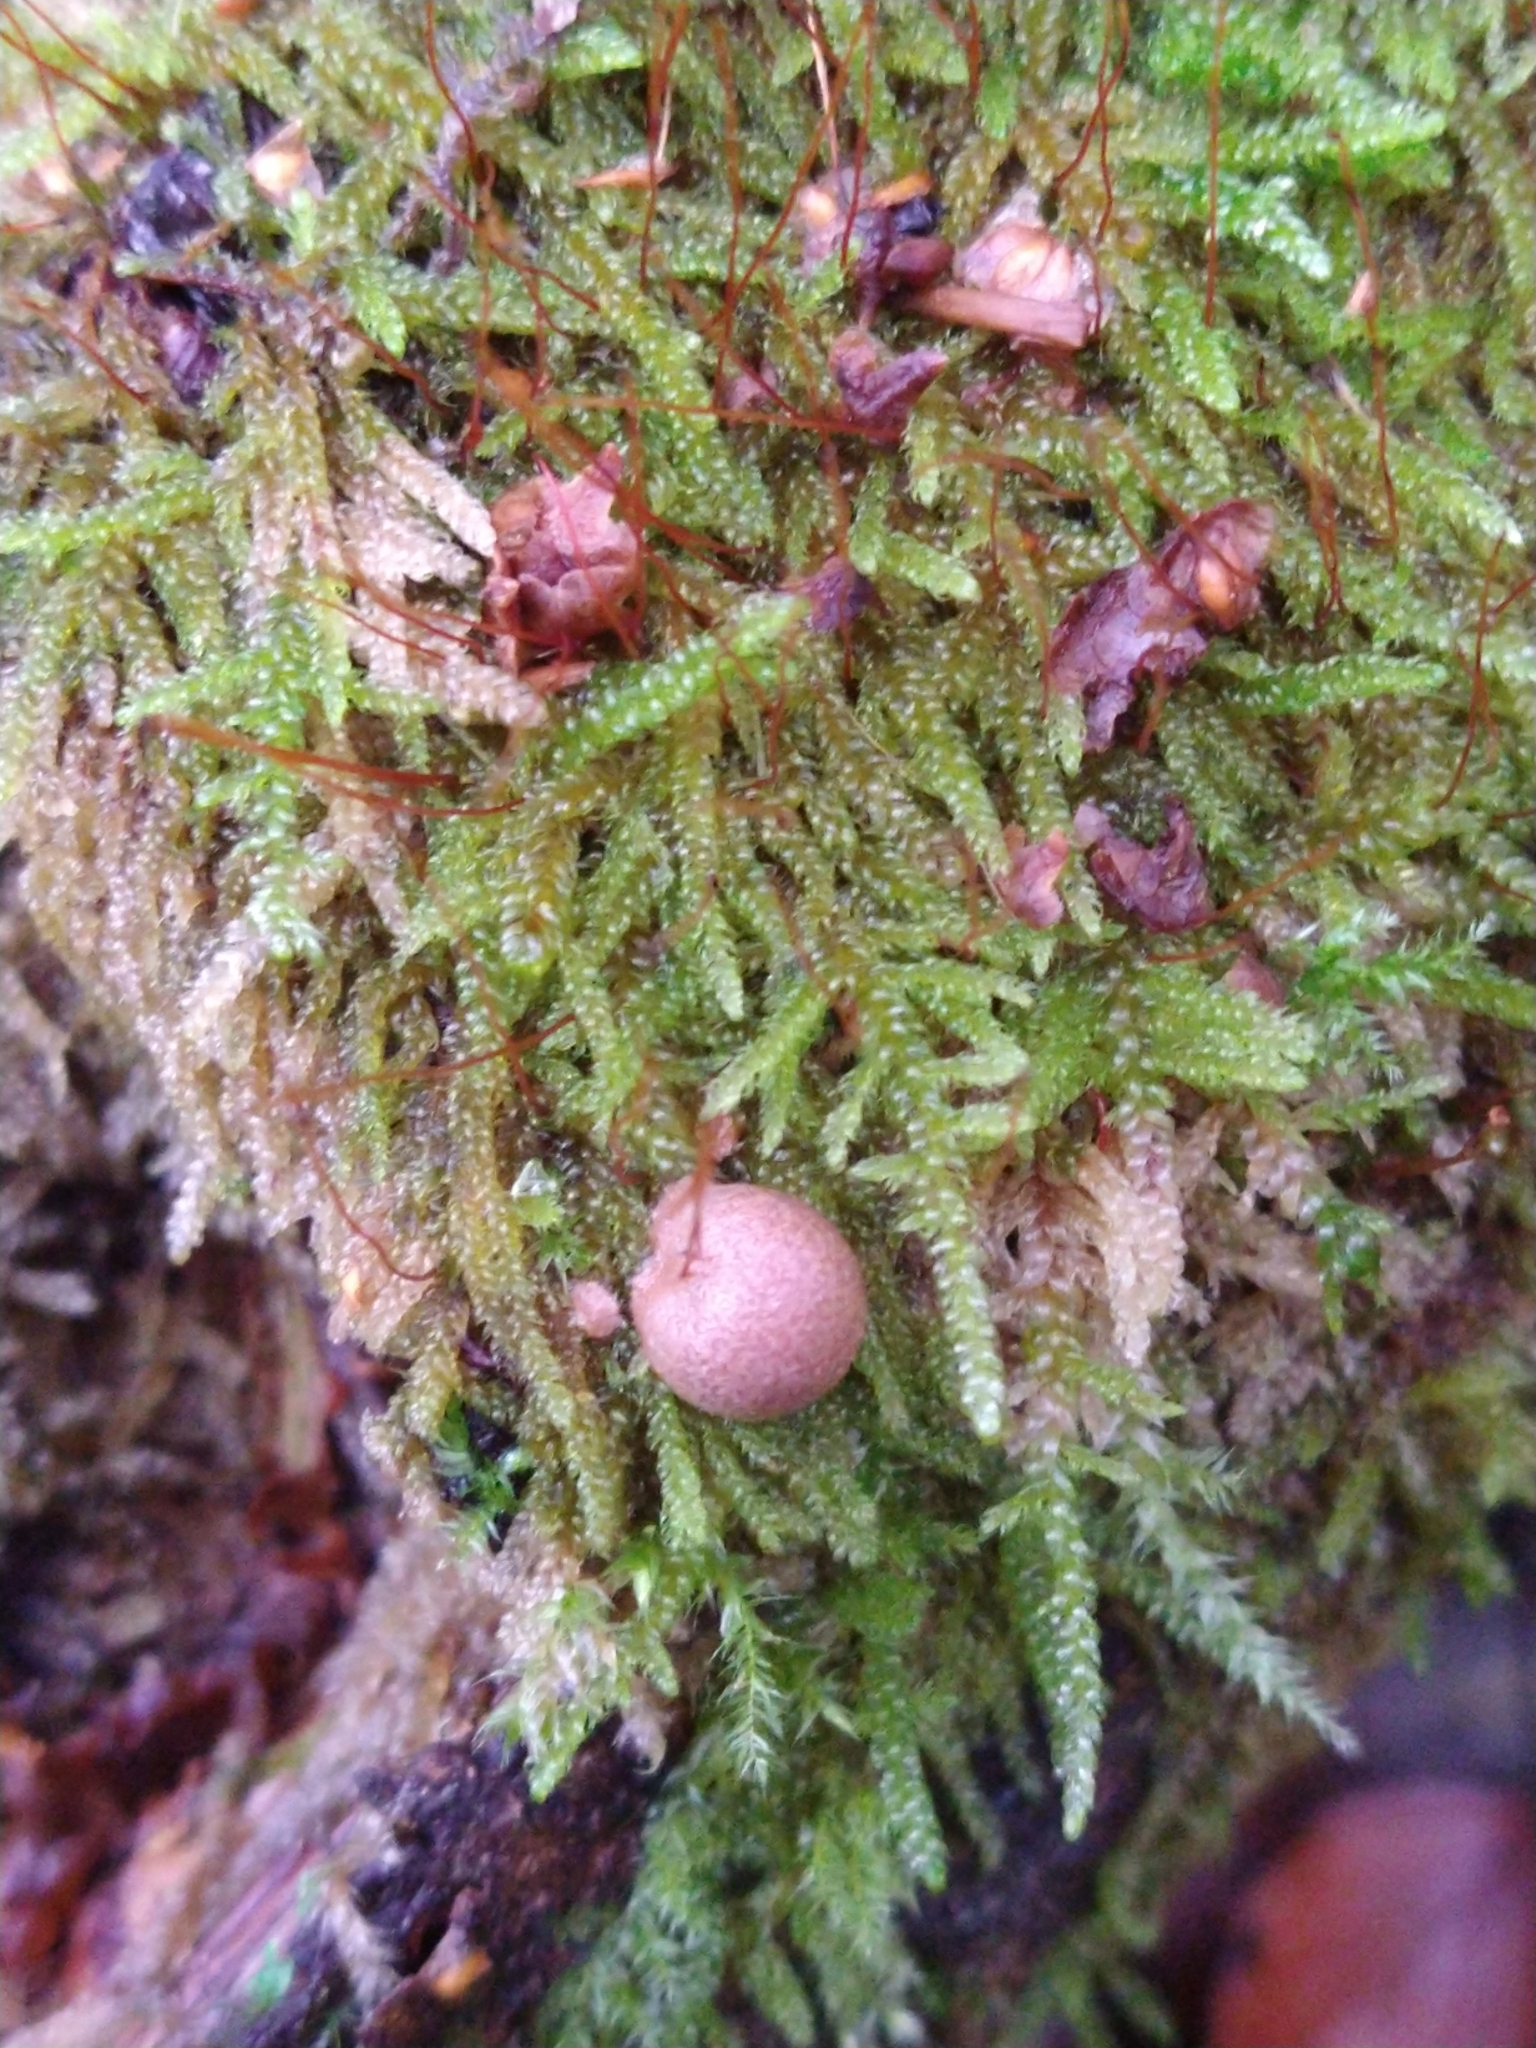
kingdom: Protozoa
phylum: Mycetozoa
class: Myxomycetes
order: Cribrariales
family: Tubiferaceae
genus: Lycogala
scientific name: Lycogala epidendrum
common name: Wolf's milk
